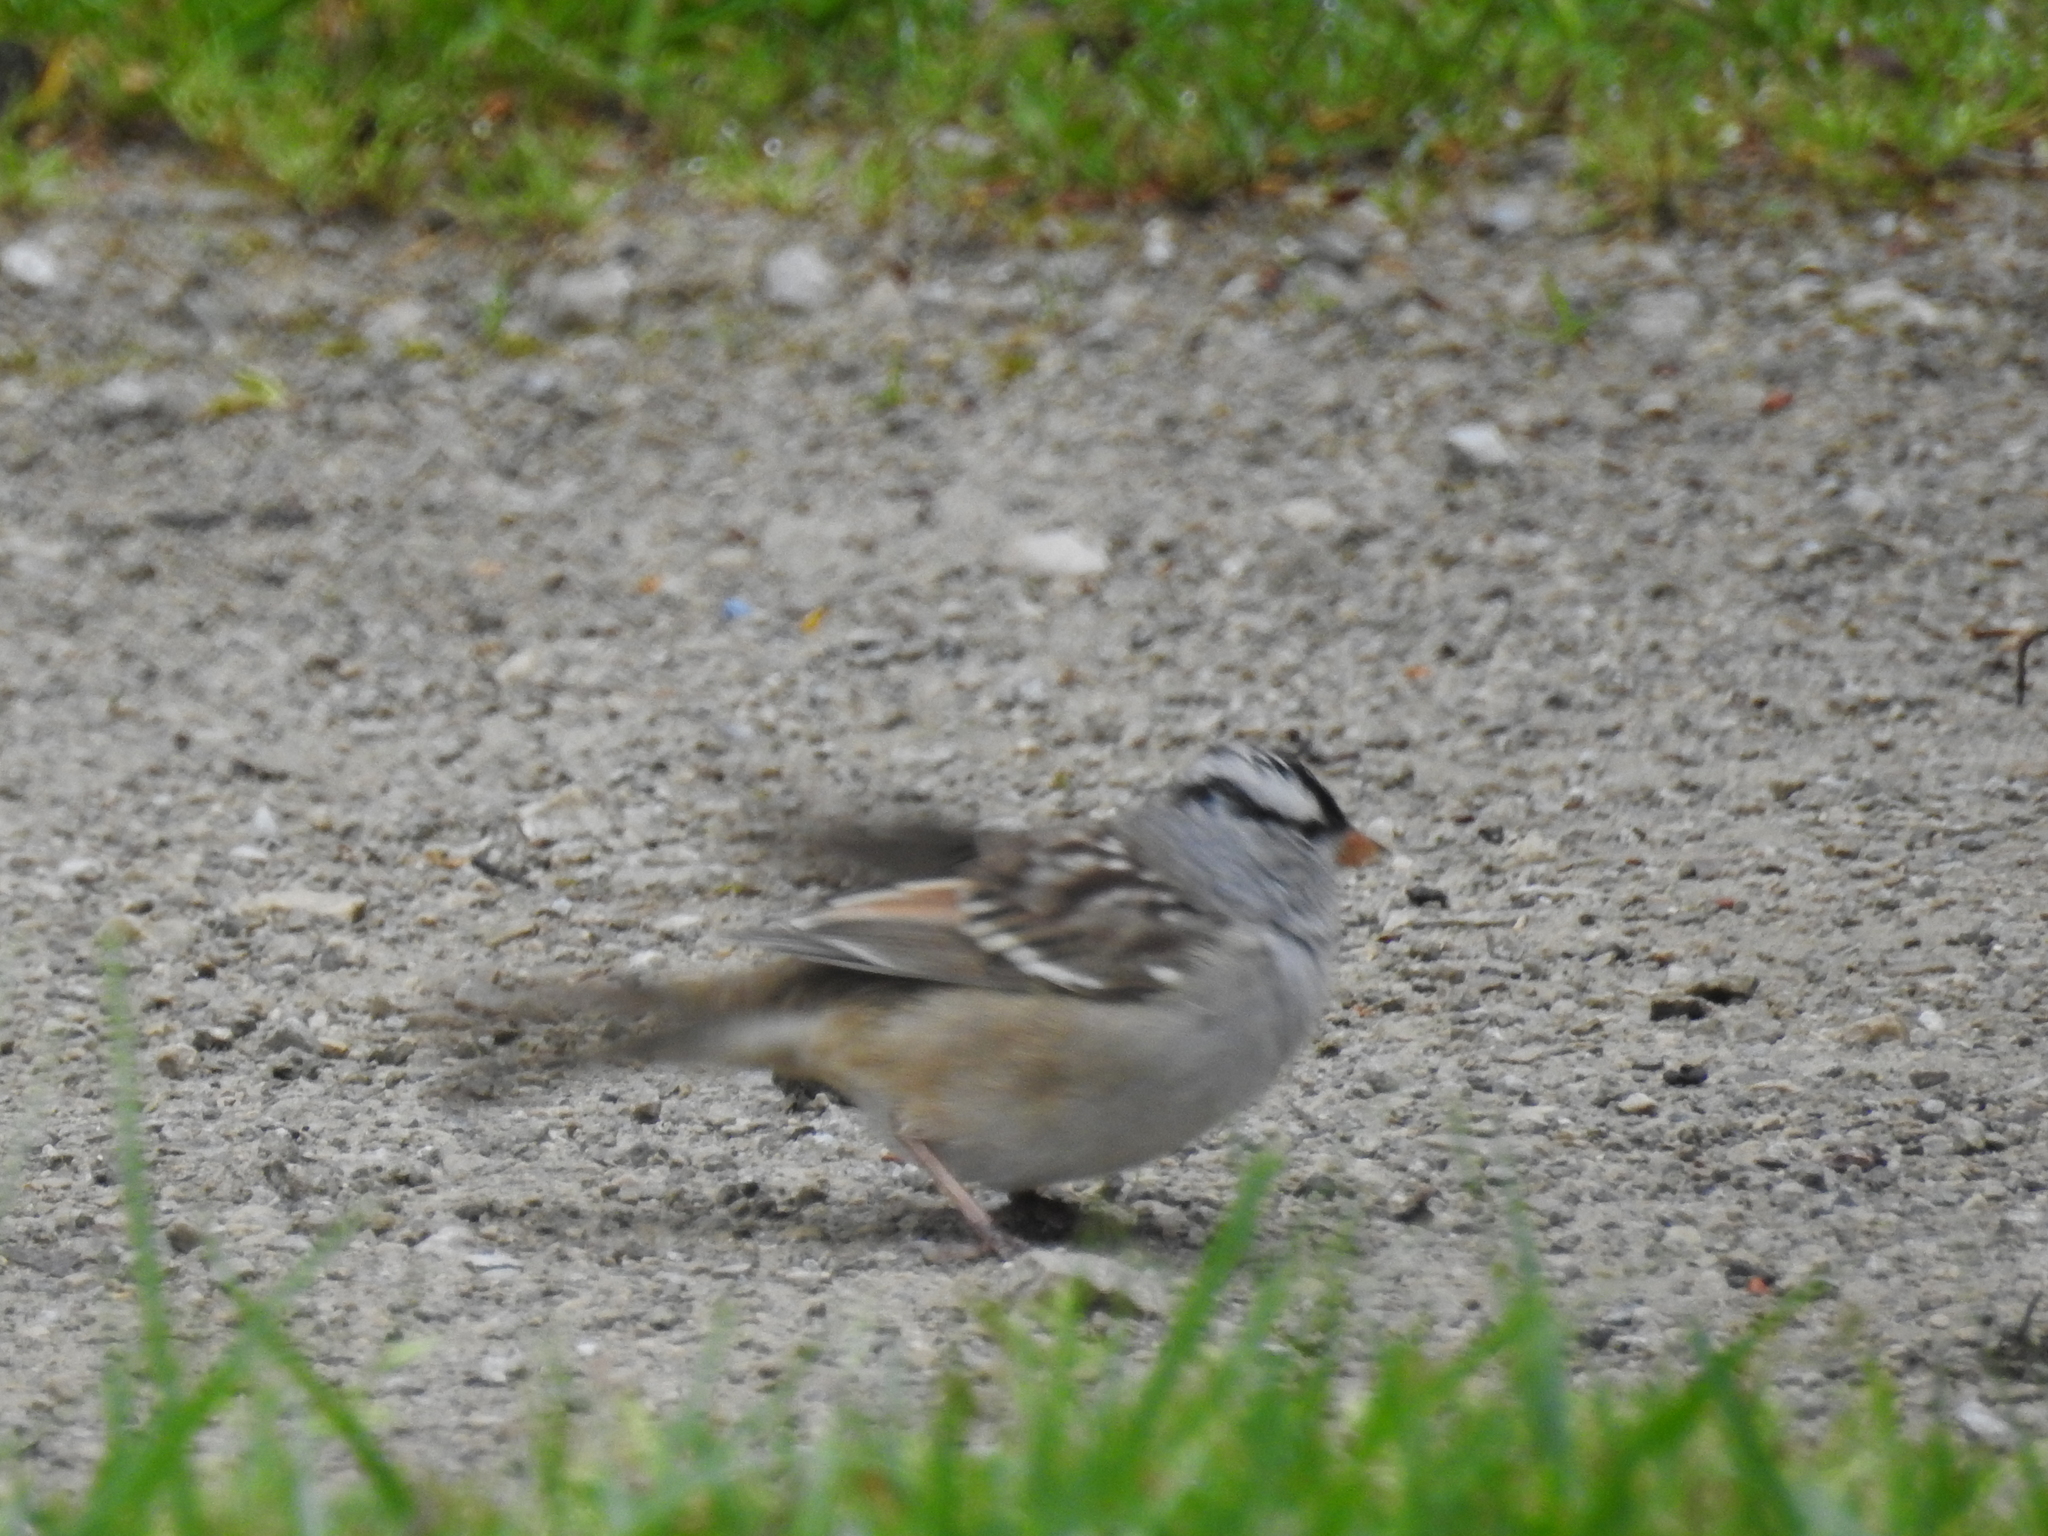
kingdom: Animalia
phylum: Chordata
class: Aves
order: Passeriformes
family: Passerellidae
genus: Zonotrichia
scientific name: Zonotrichia leucophrys
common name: White-crowned sparrow
